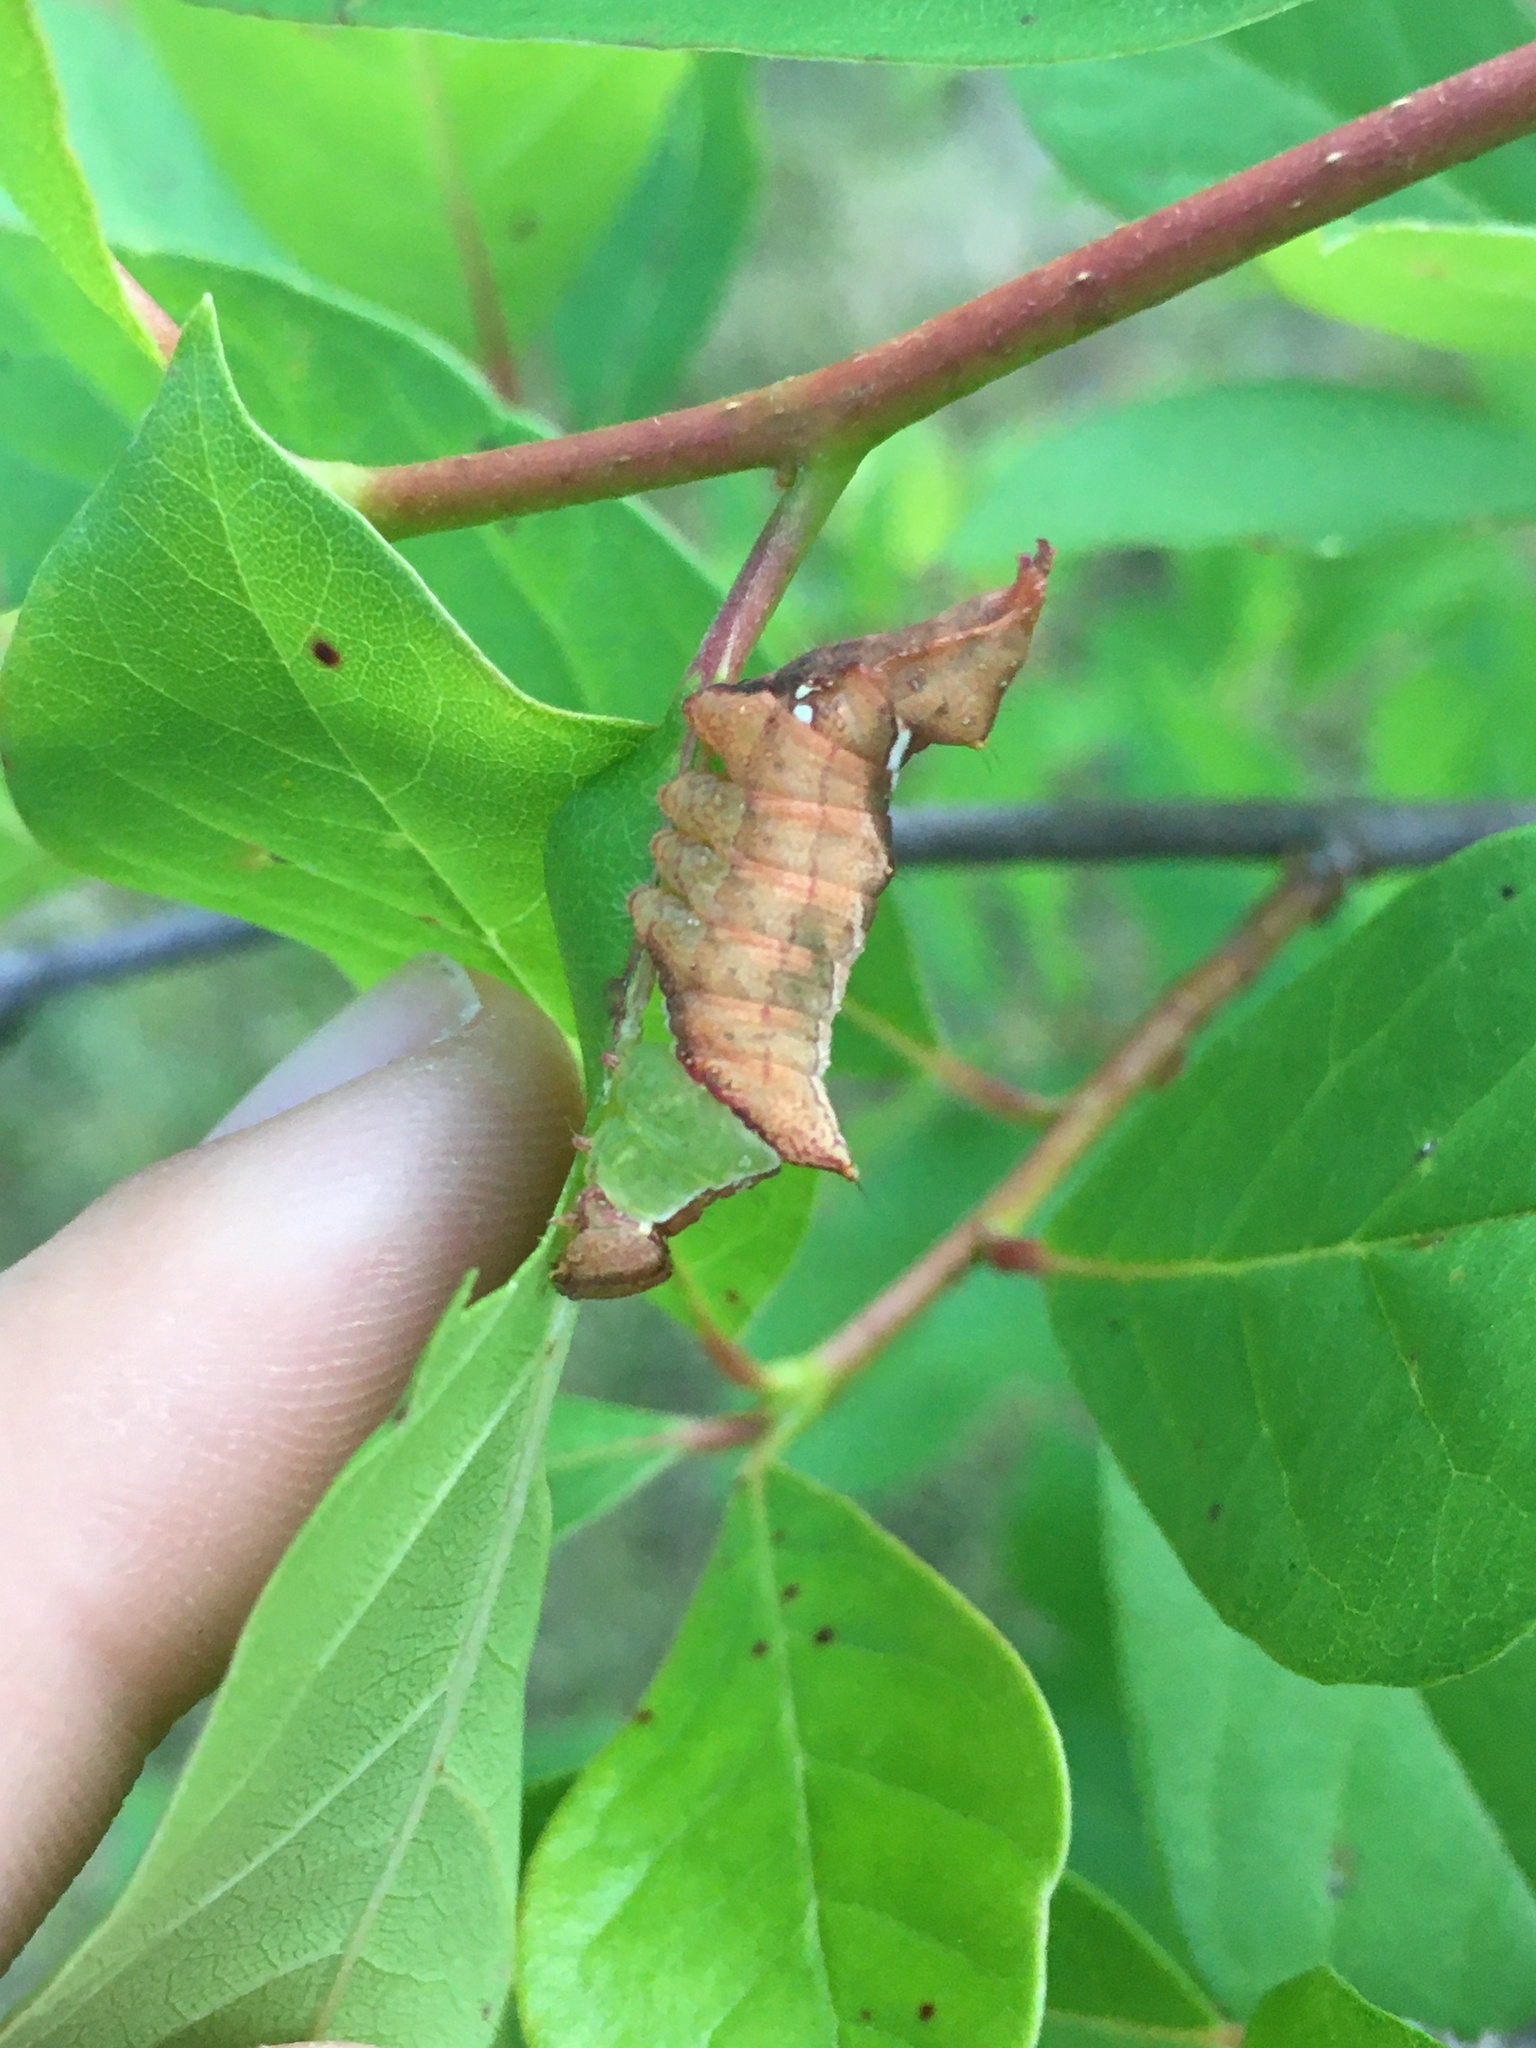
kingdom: Animalia
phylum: Arthropoda
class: Insecta
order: Lepidoptera
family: Notodontidae
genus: Schizura
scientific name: Schizura
